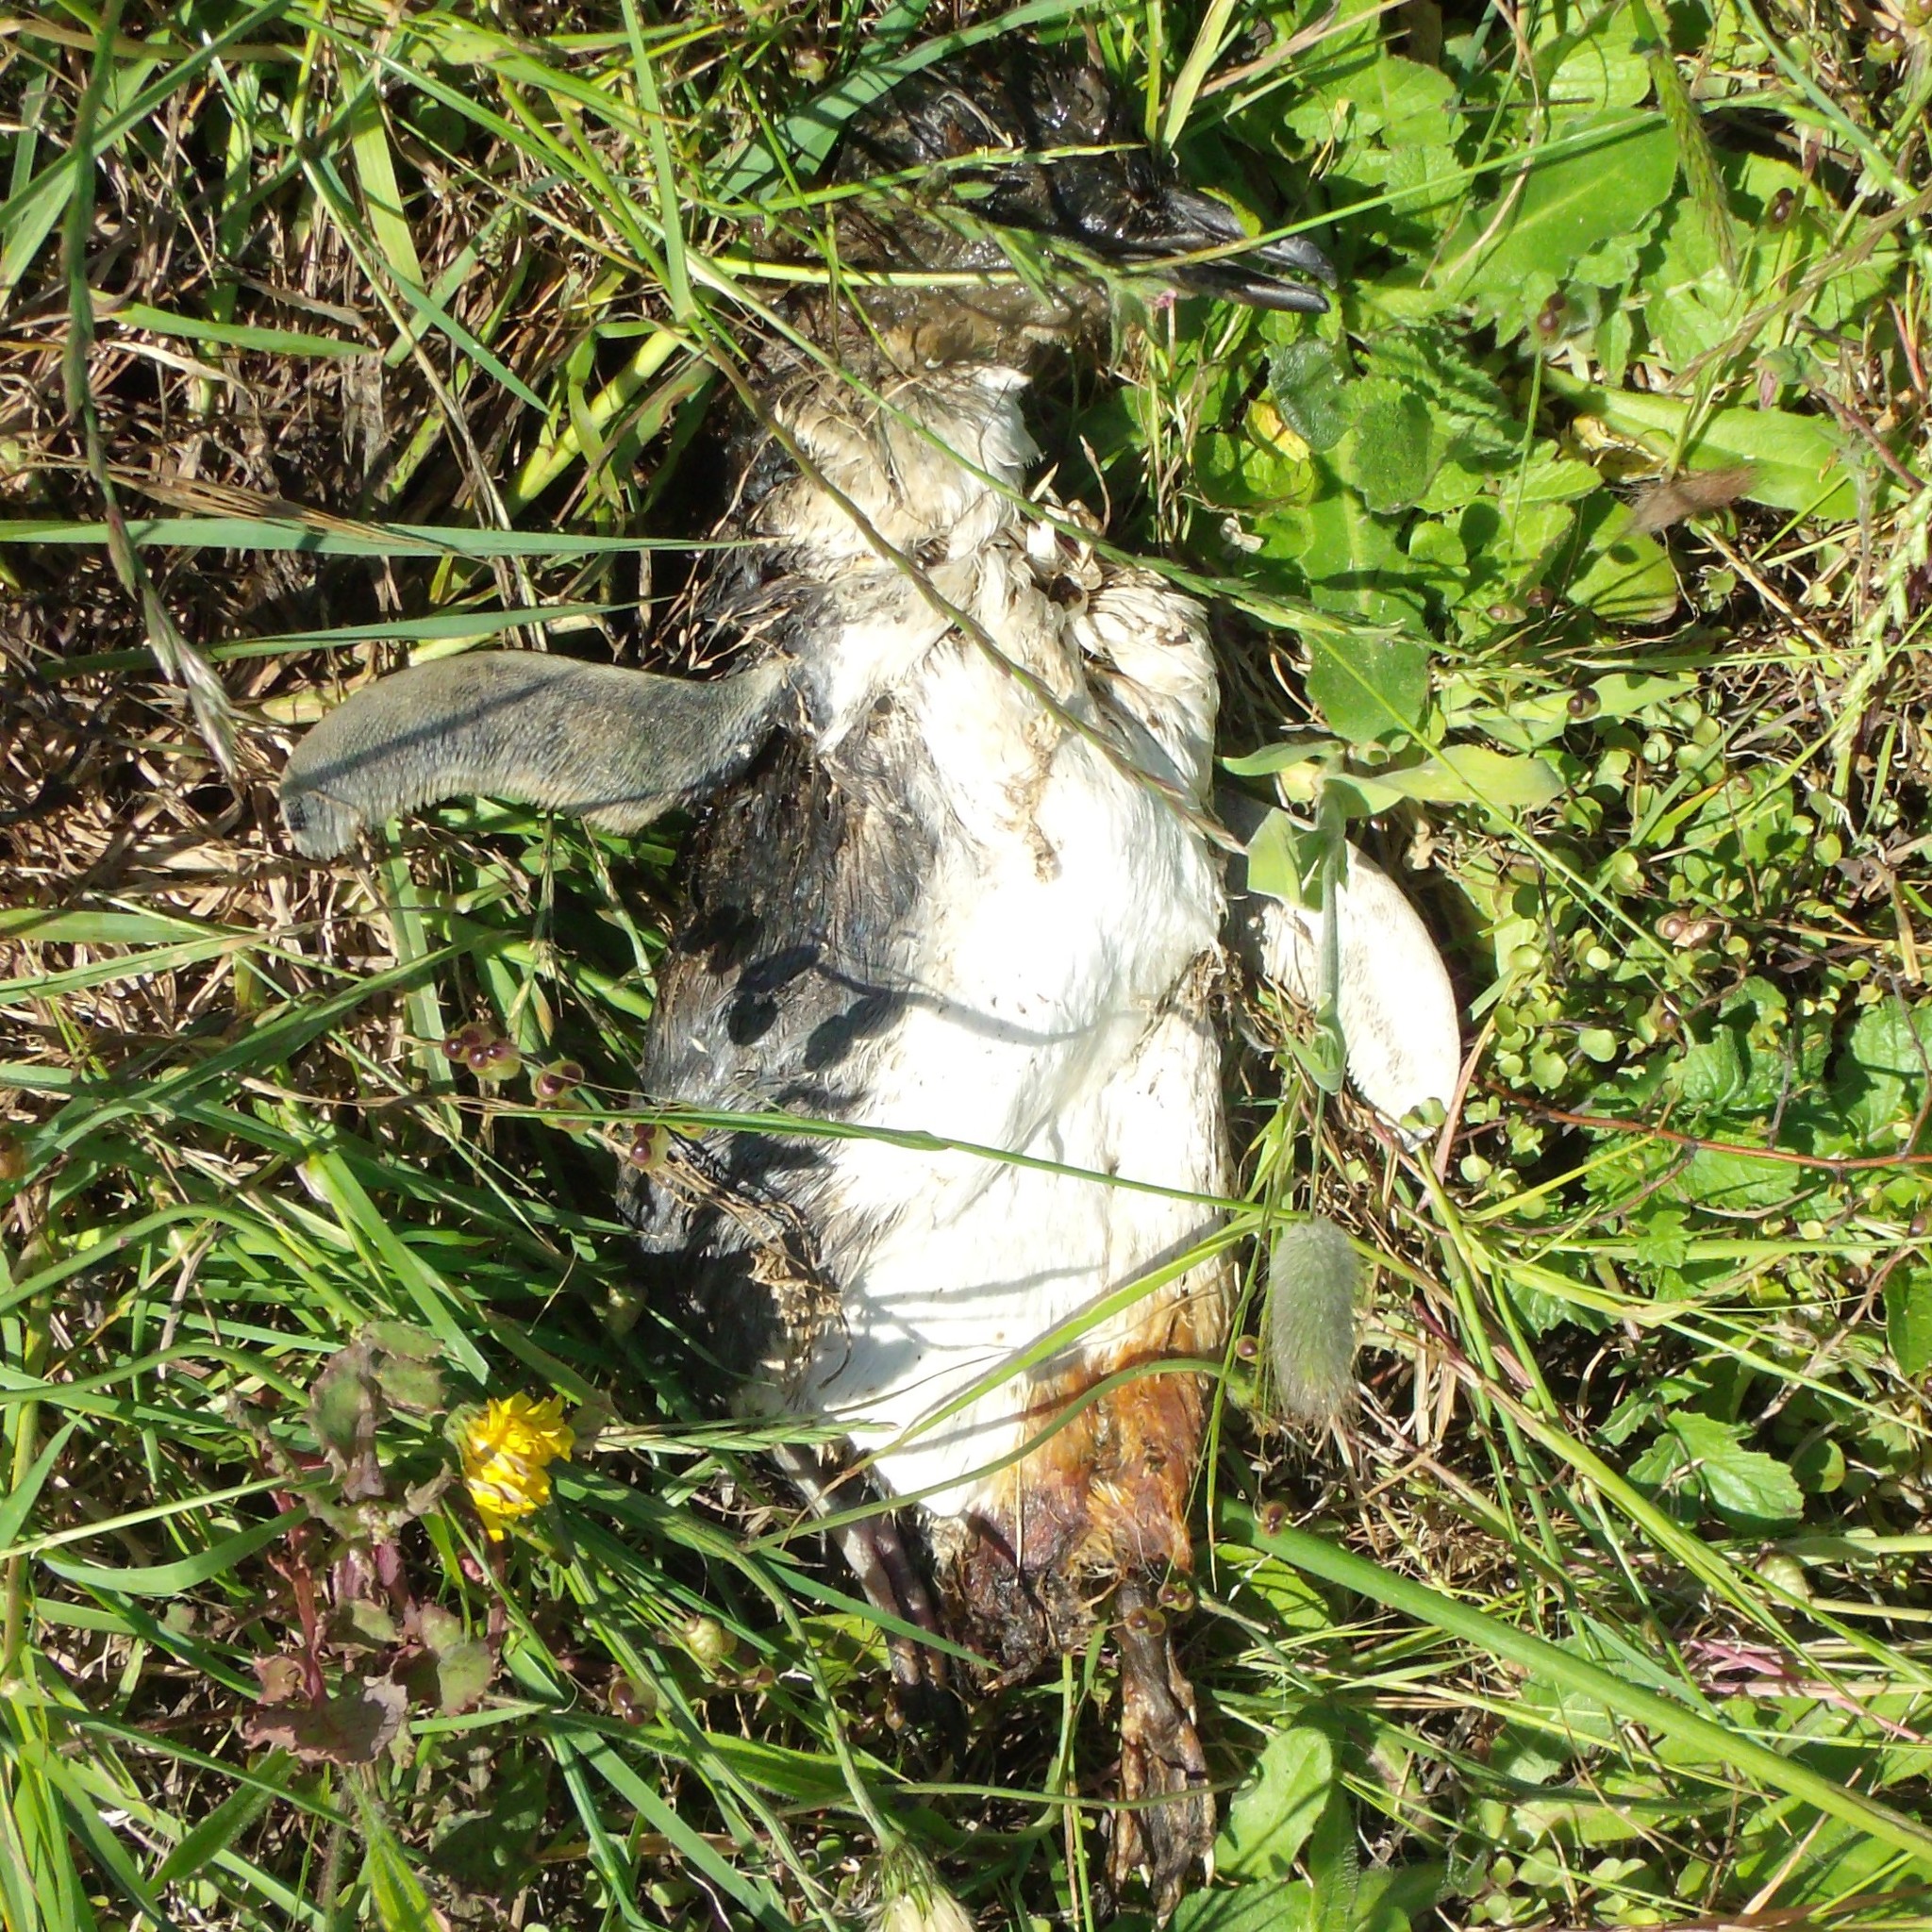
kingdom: Animalia
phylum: Chordata
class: Aves
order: Sphenisciformes
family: Spheniscidae
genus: Eudyptula
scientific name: Eudyptula minor
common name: Little penguin
